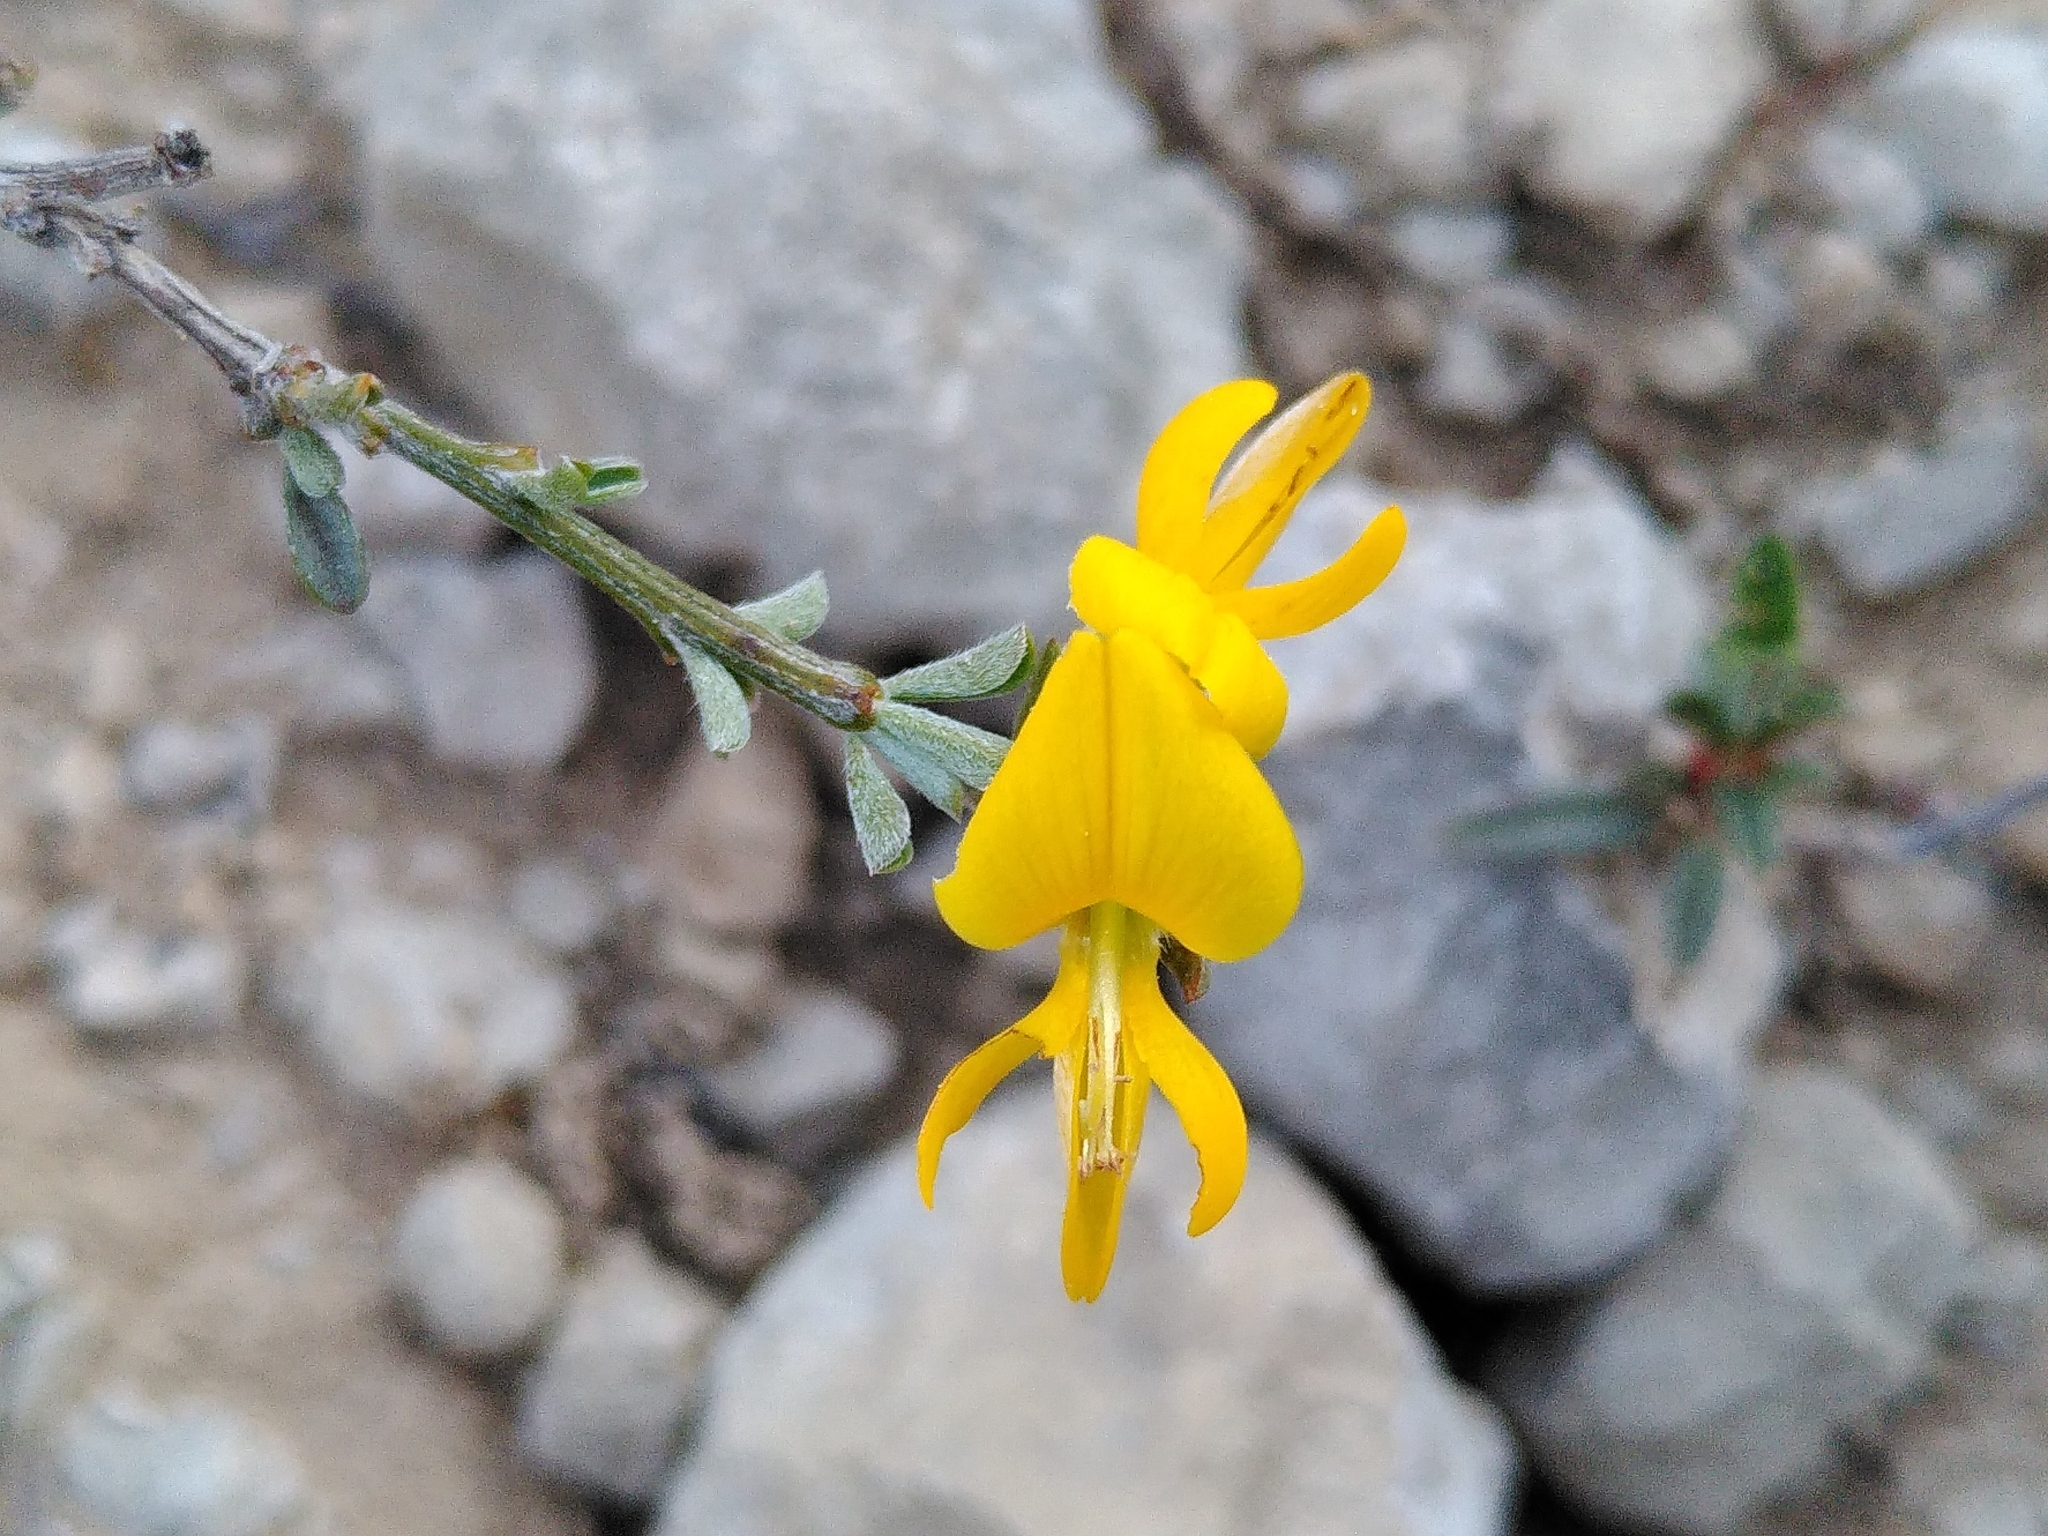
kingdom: Plantae
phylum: Tracheophyta
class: Magnoliopsida
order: Fabales
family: Fabaceae
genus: Genista
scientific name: Genista pilosa
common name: Hairy greenweed
